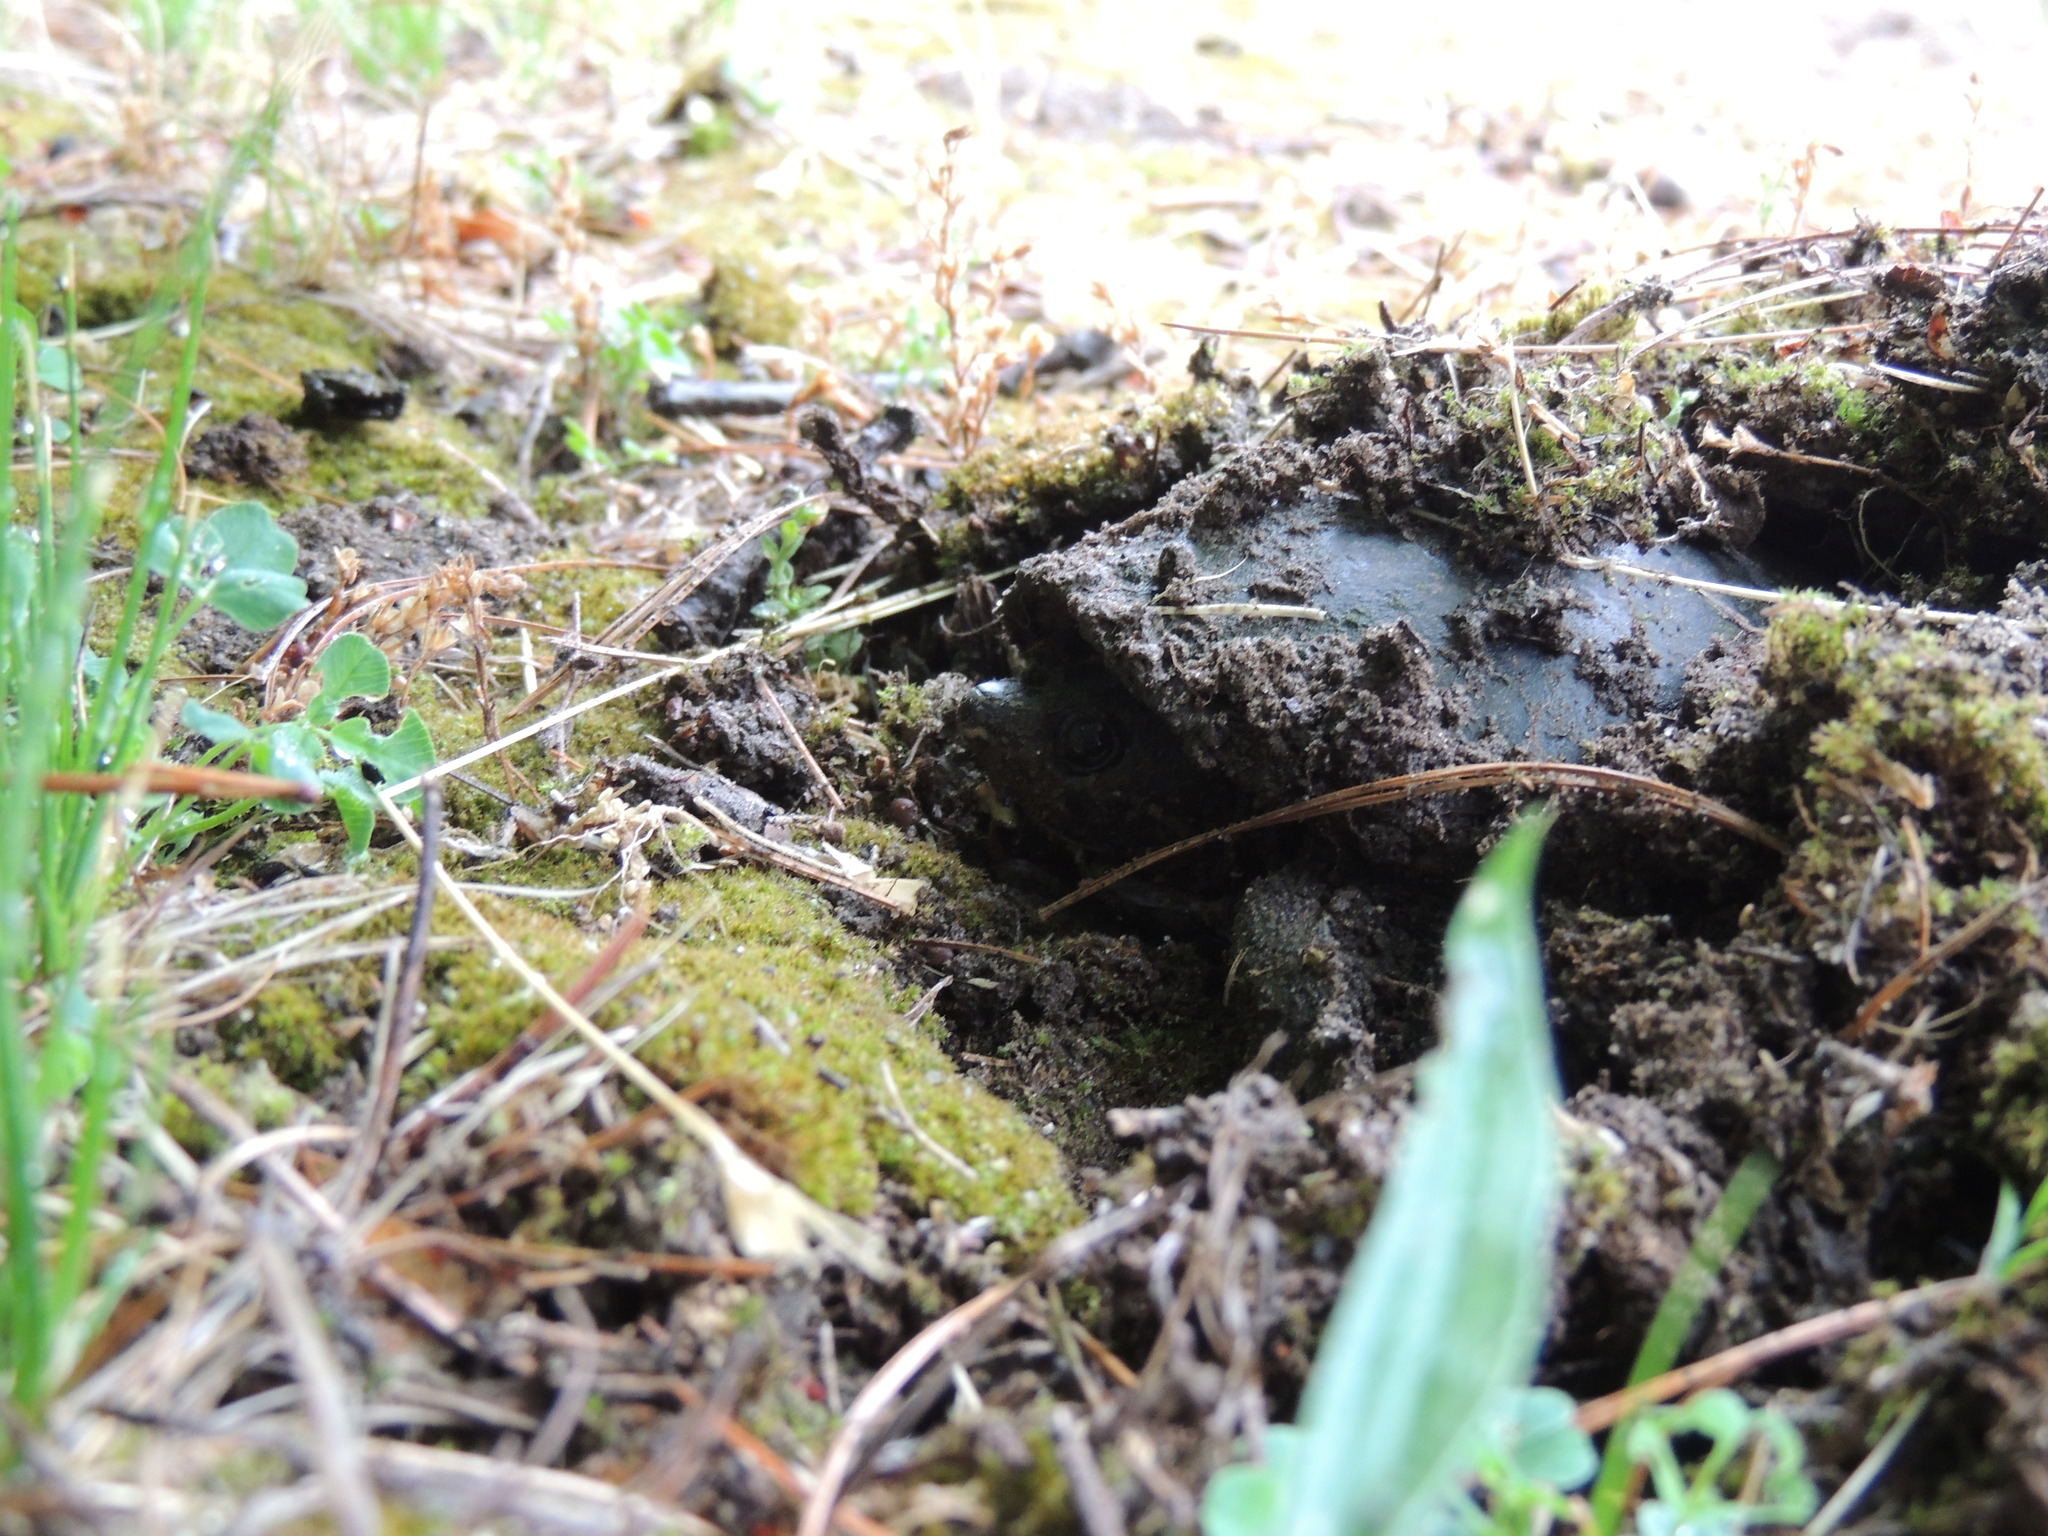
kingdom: Animalia
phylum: Chordata
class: Testudines
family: Kinosternidae
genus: Sternotherus
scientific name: Sternotherus odoratus
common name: Common musk turtle
